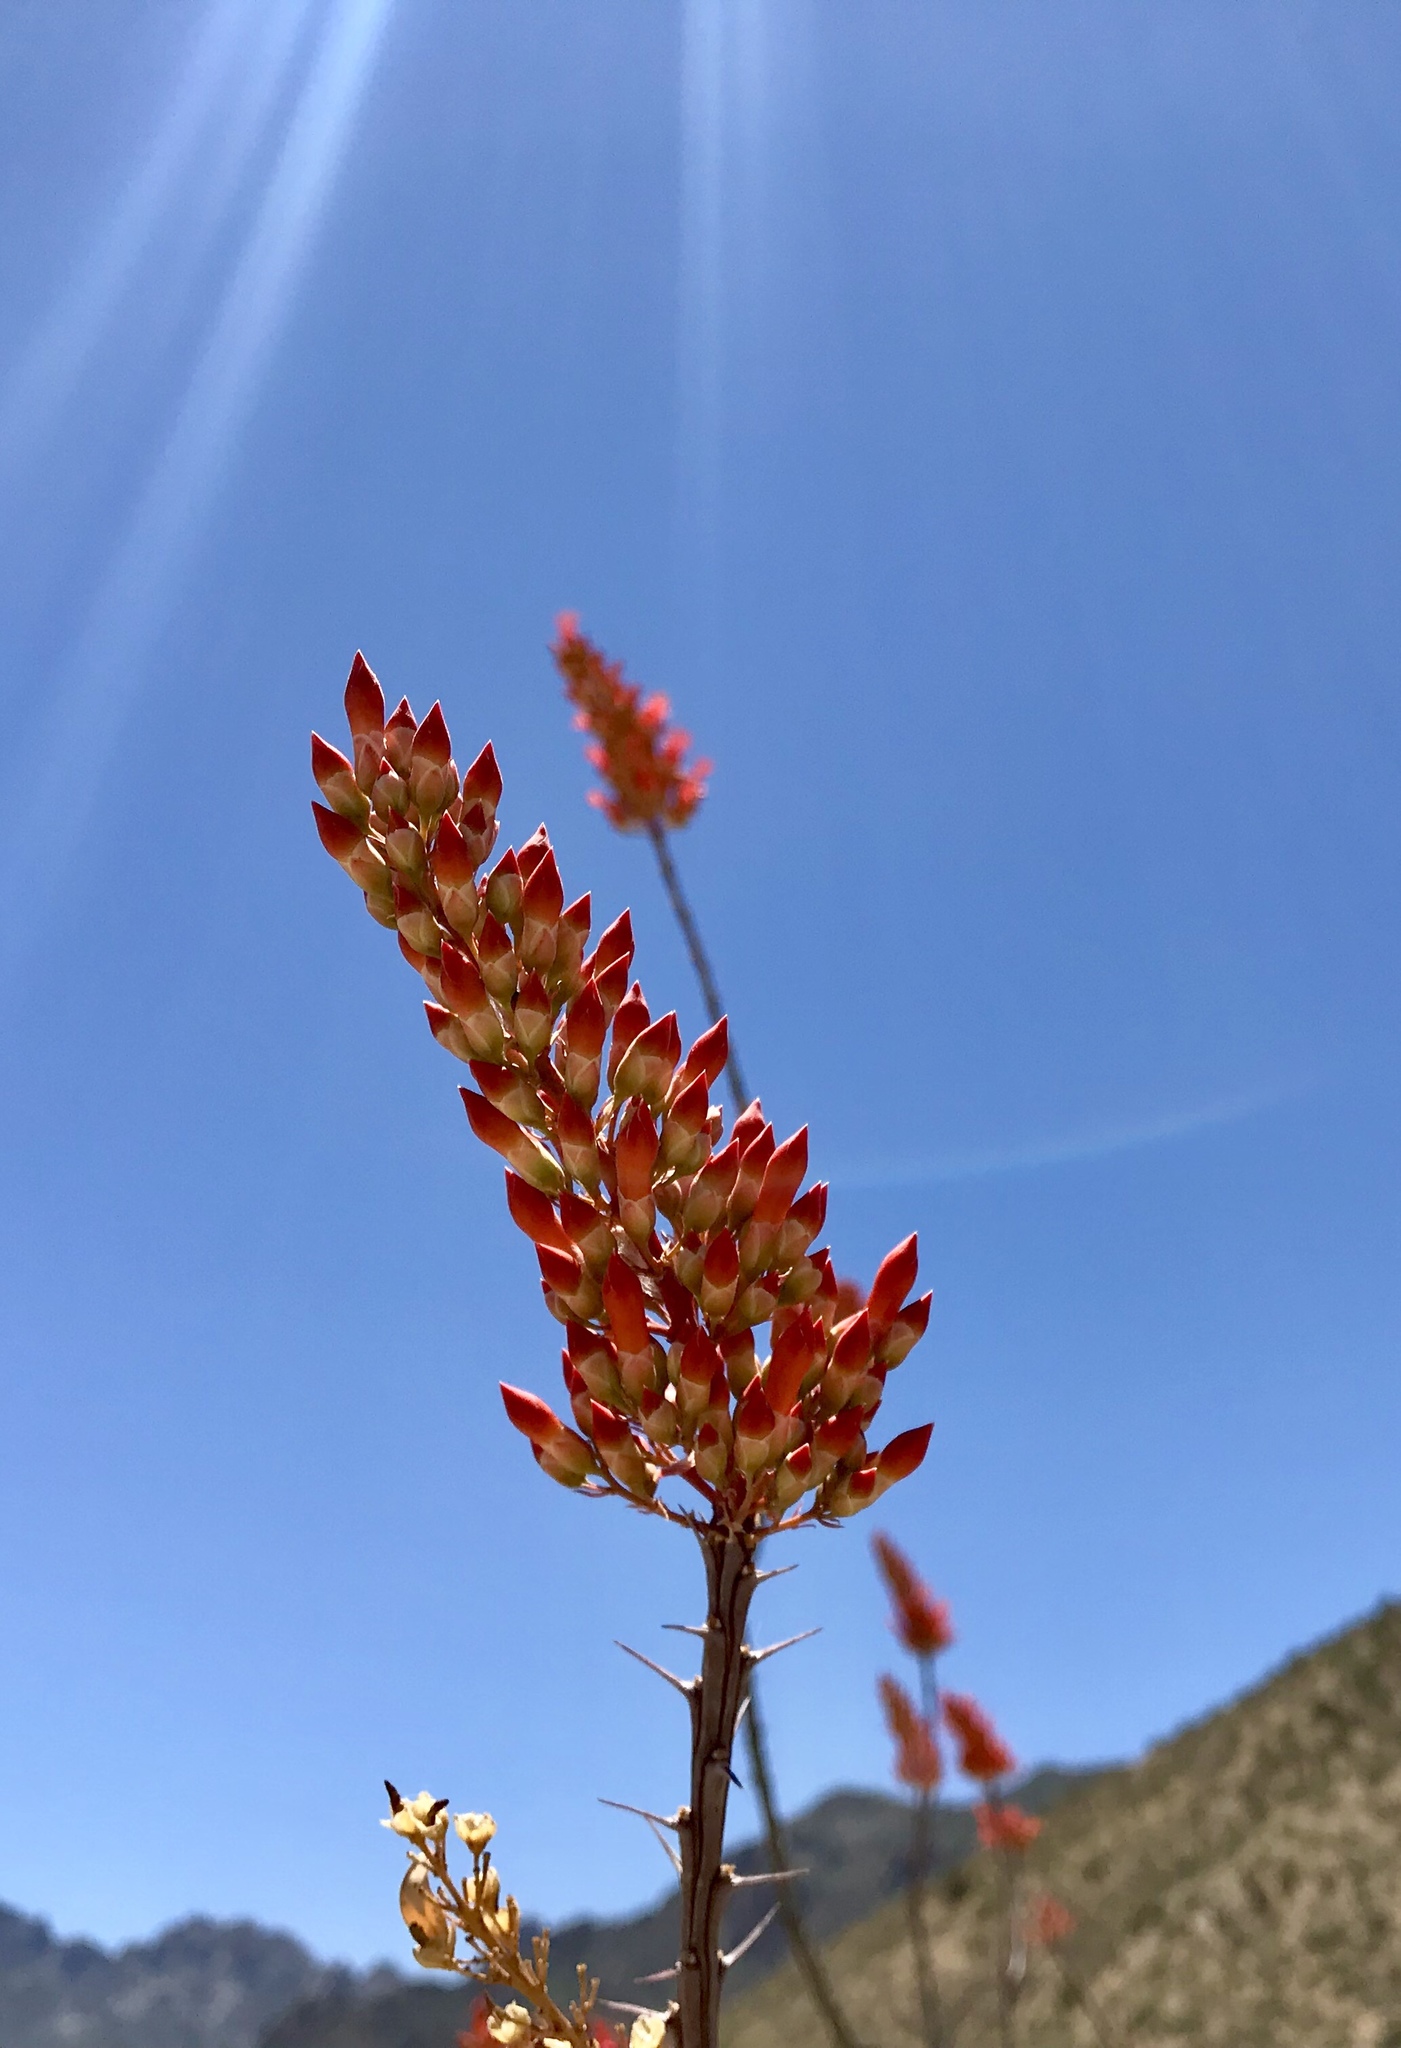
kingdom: Plantae
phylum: Tracheophyta
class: Magnoliopsida
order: Ericales
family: Fouquieriaceae
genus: Fouquieria
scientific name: Fouquieria splendens
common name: Vine-cactus
